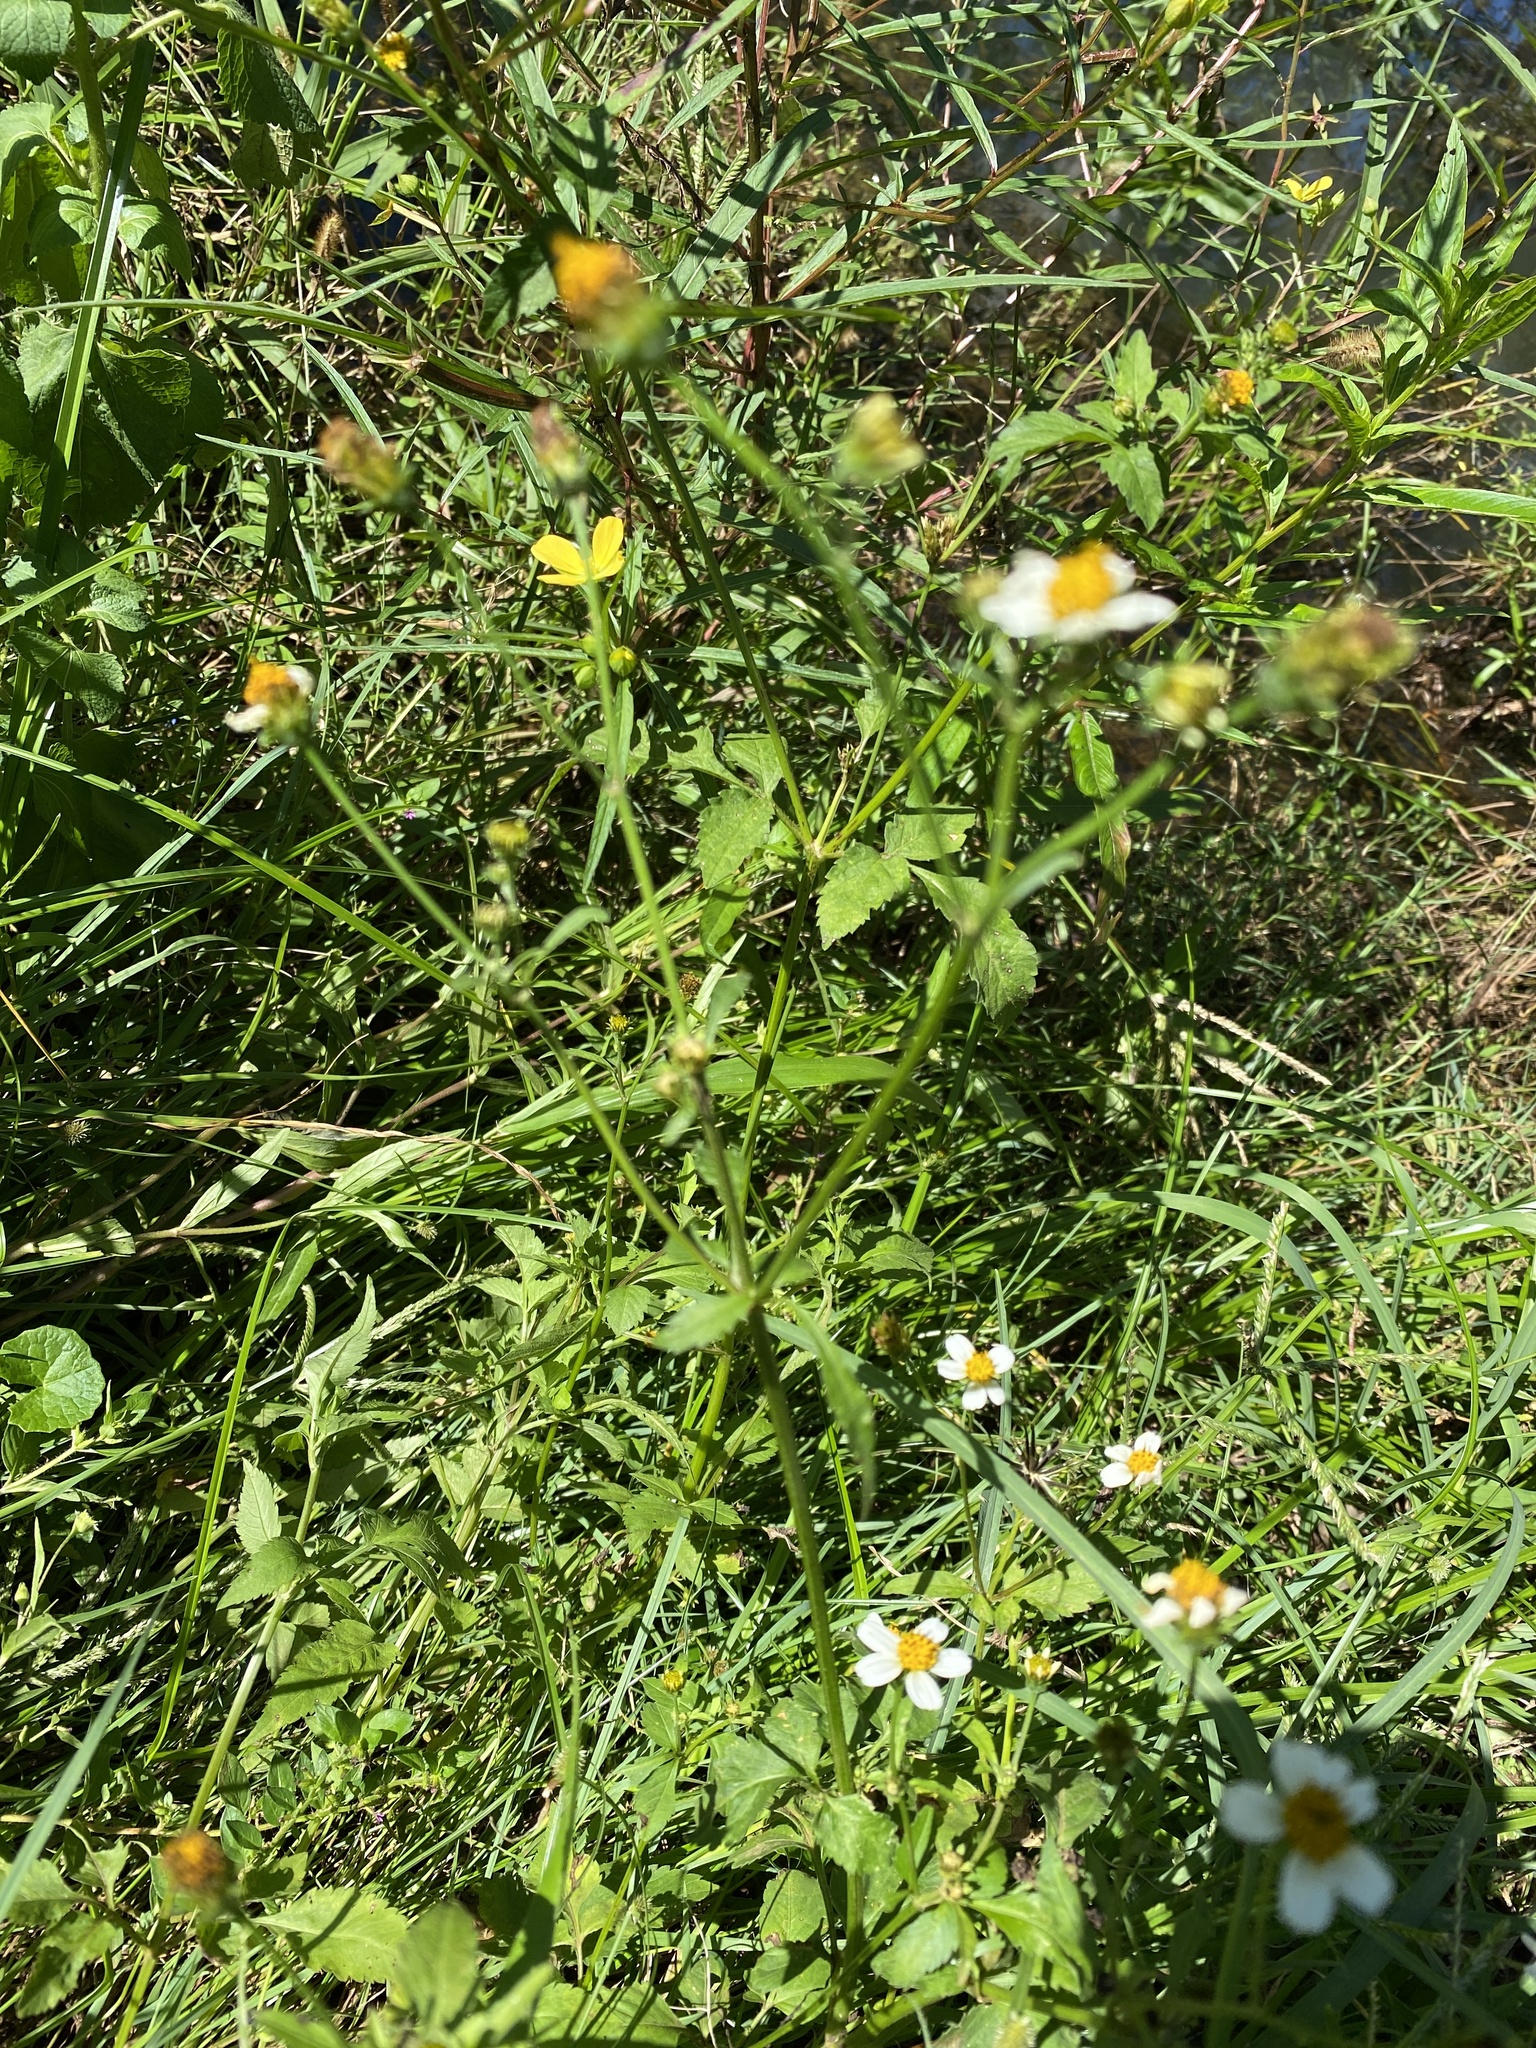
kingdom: Plantae
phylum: Tracheophyta
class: Magnoliopsida
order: Asterales
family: Asteraceae
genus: Bidens
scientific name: Bidens alba
